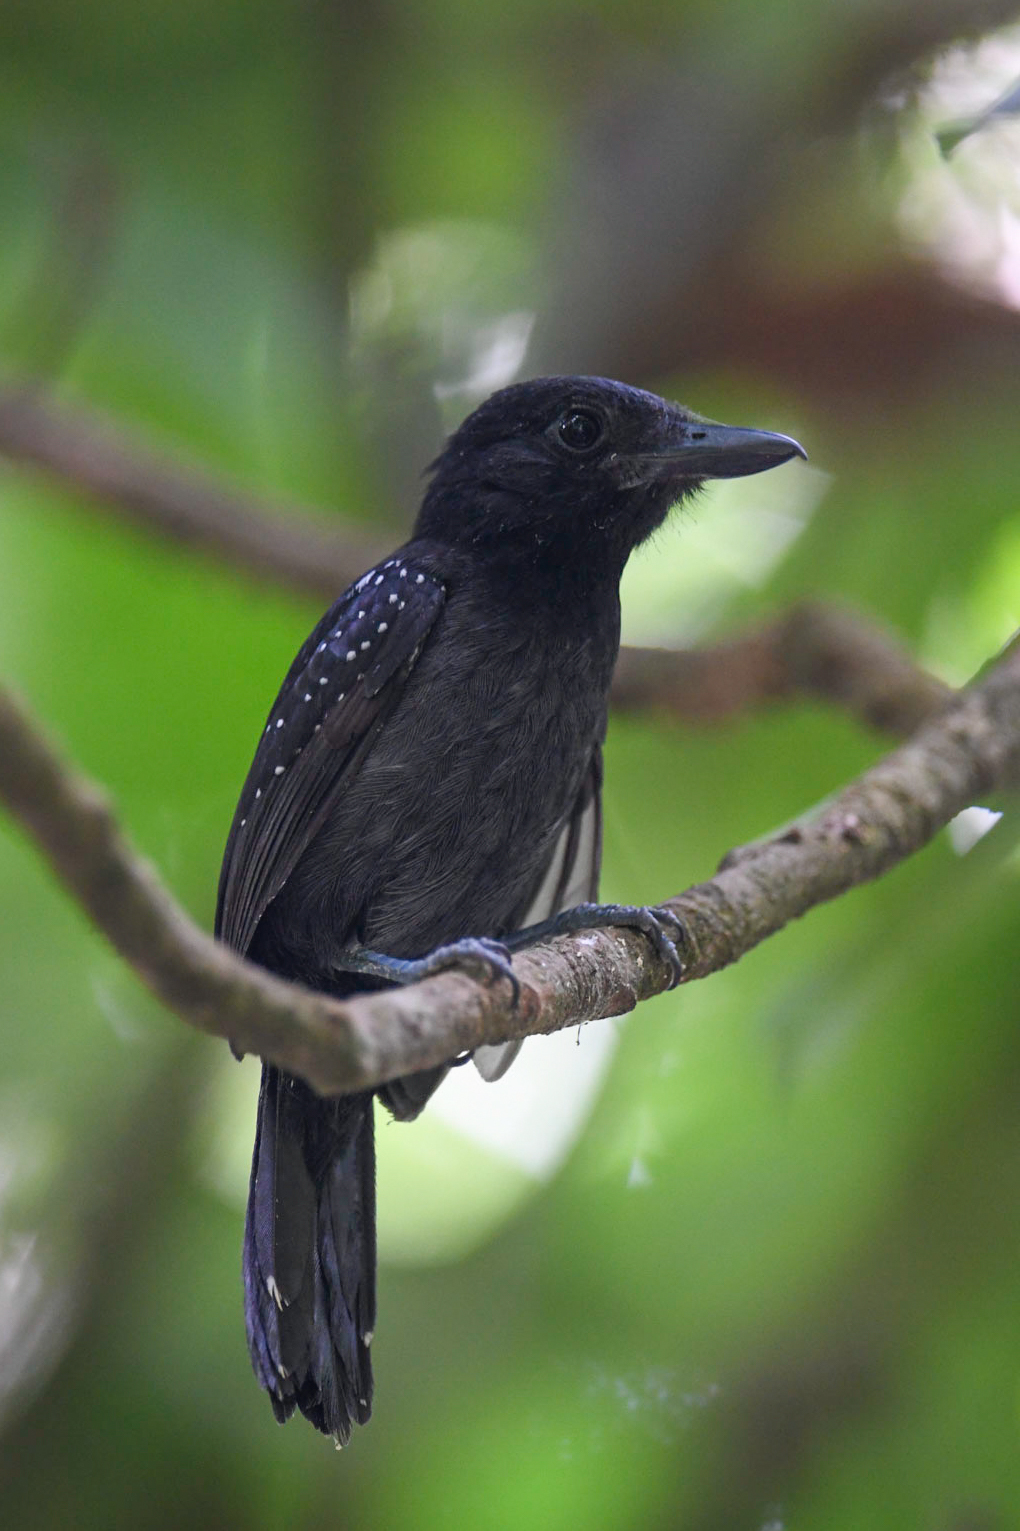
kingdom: Animalia
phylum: Chordata
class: Aves
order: Passeriformes
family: Thamnophilidae
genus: Thamnophilus
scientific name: Thamnophilus bridgesi
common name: Black-hooded antshrike
